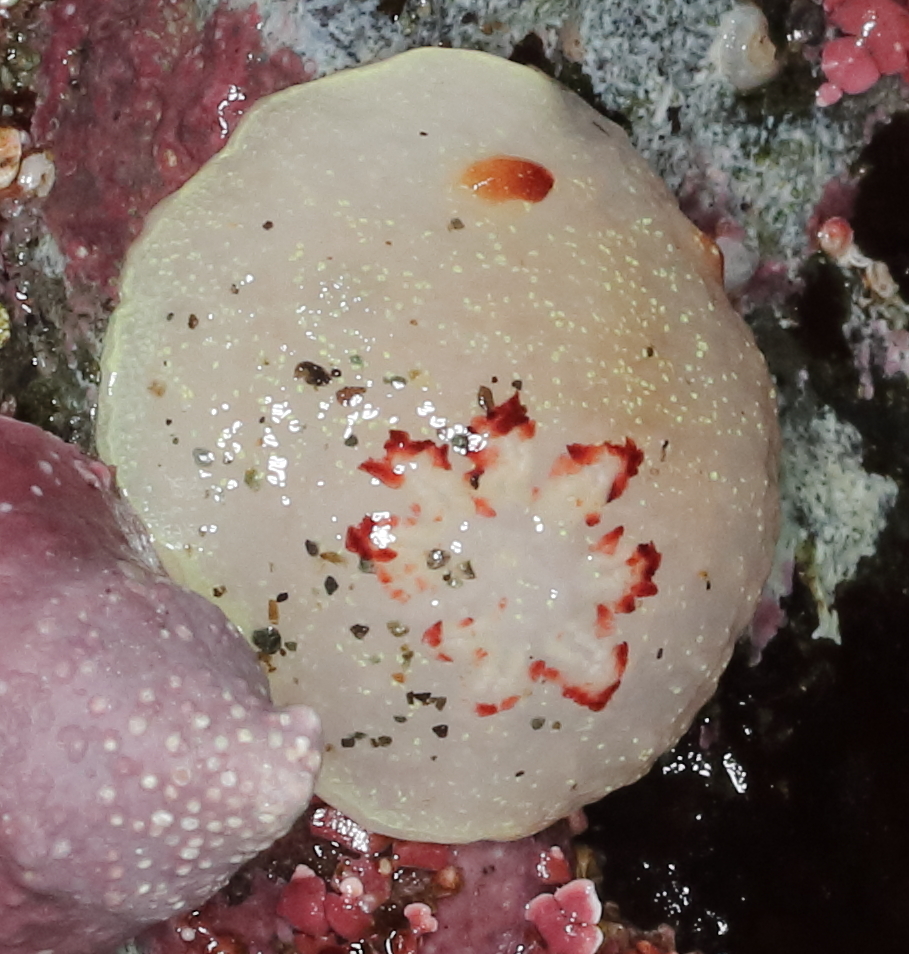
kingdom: Animalia
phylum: Mollusca
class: Gastropoda
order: Nudibranchia
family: Onchidorididae
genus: Acanthodoris
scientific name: Acanthodoris nanaimoensis
